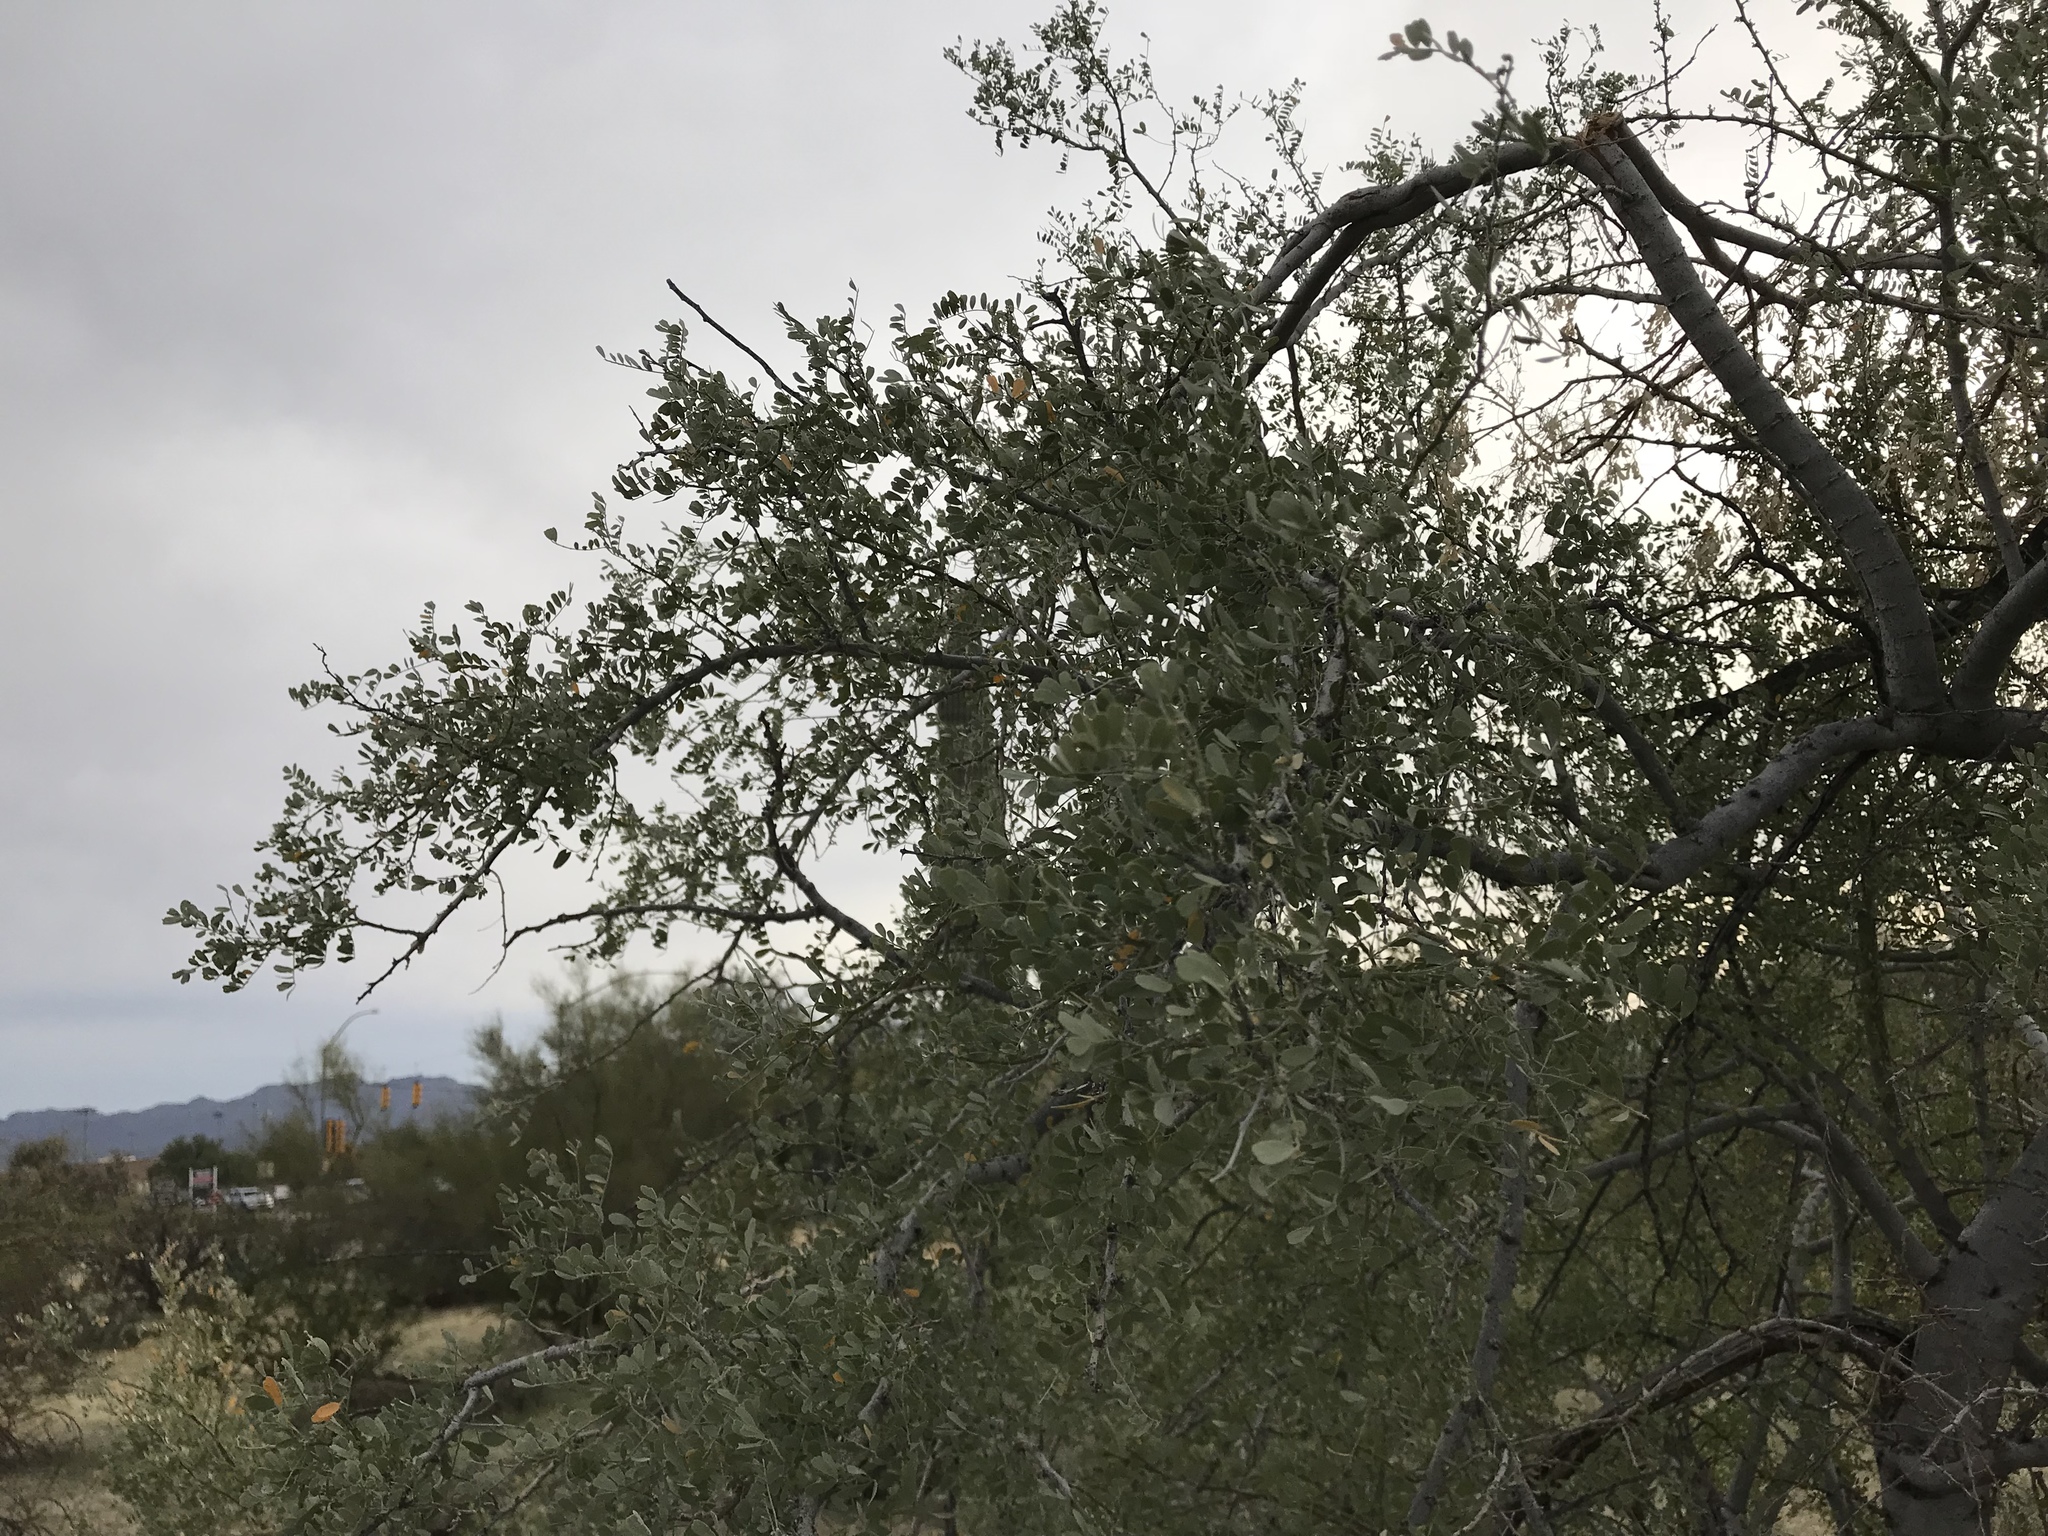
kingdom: Plantae
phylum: Tracheophyta
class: Magnoliopsida
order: Fabales
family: Fabaceae
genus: Olneya
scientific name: Olneya tesota
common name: Desert ironwood
